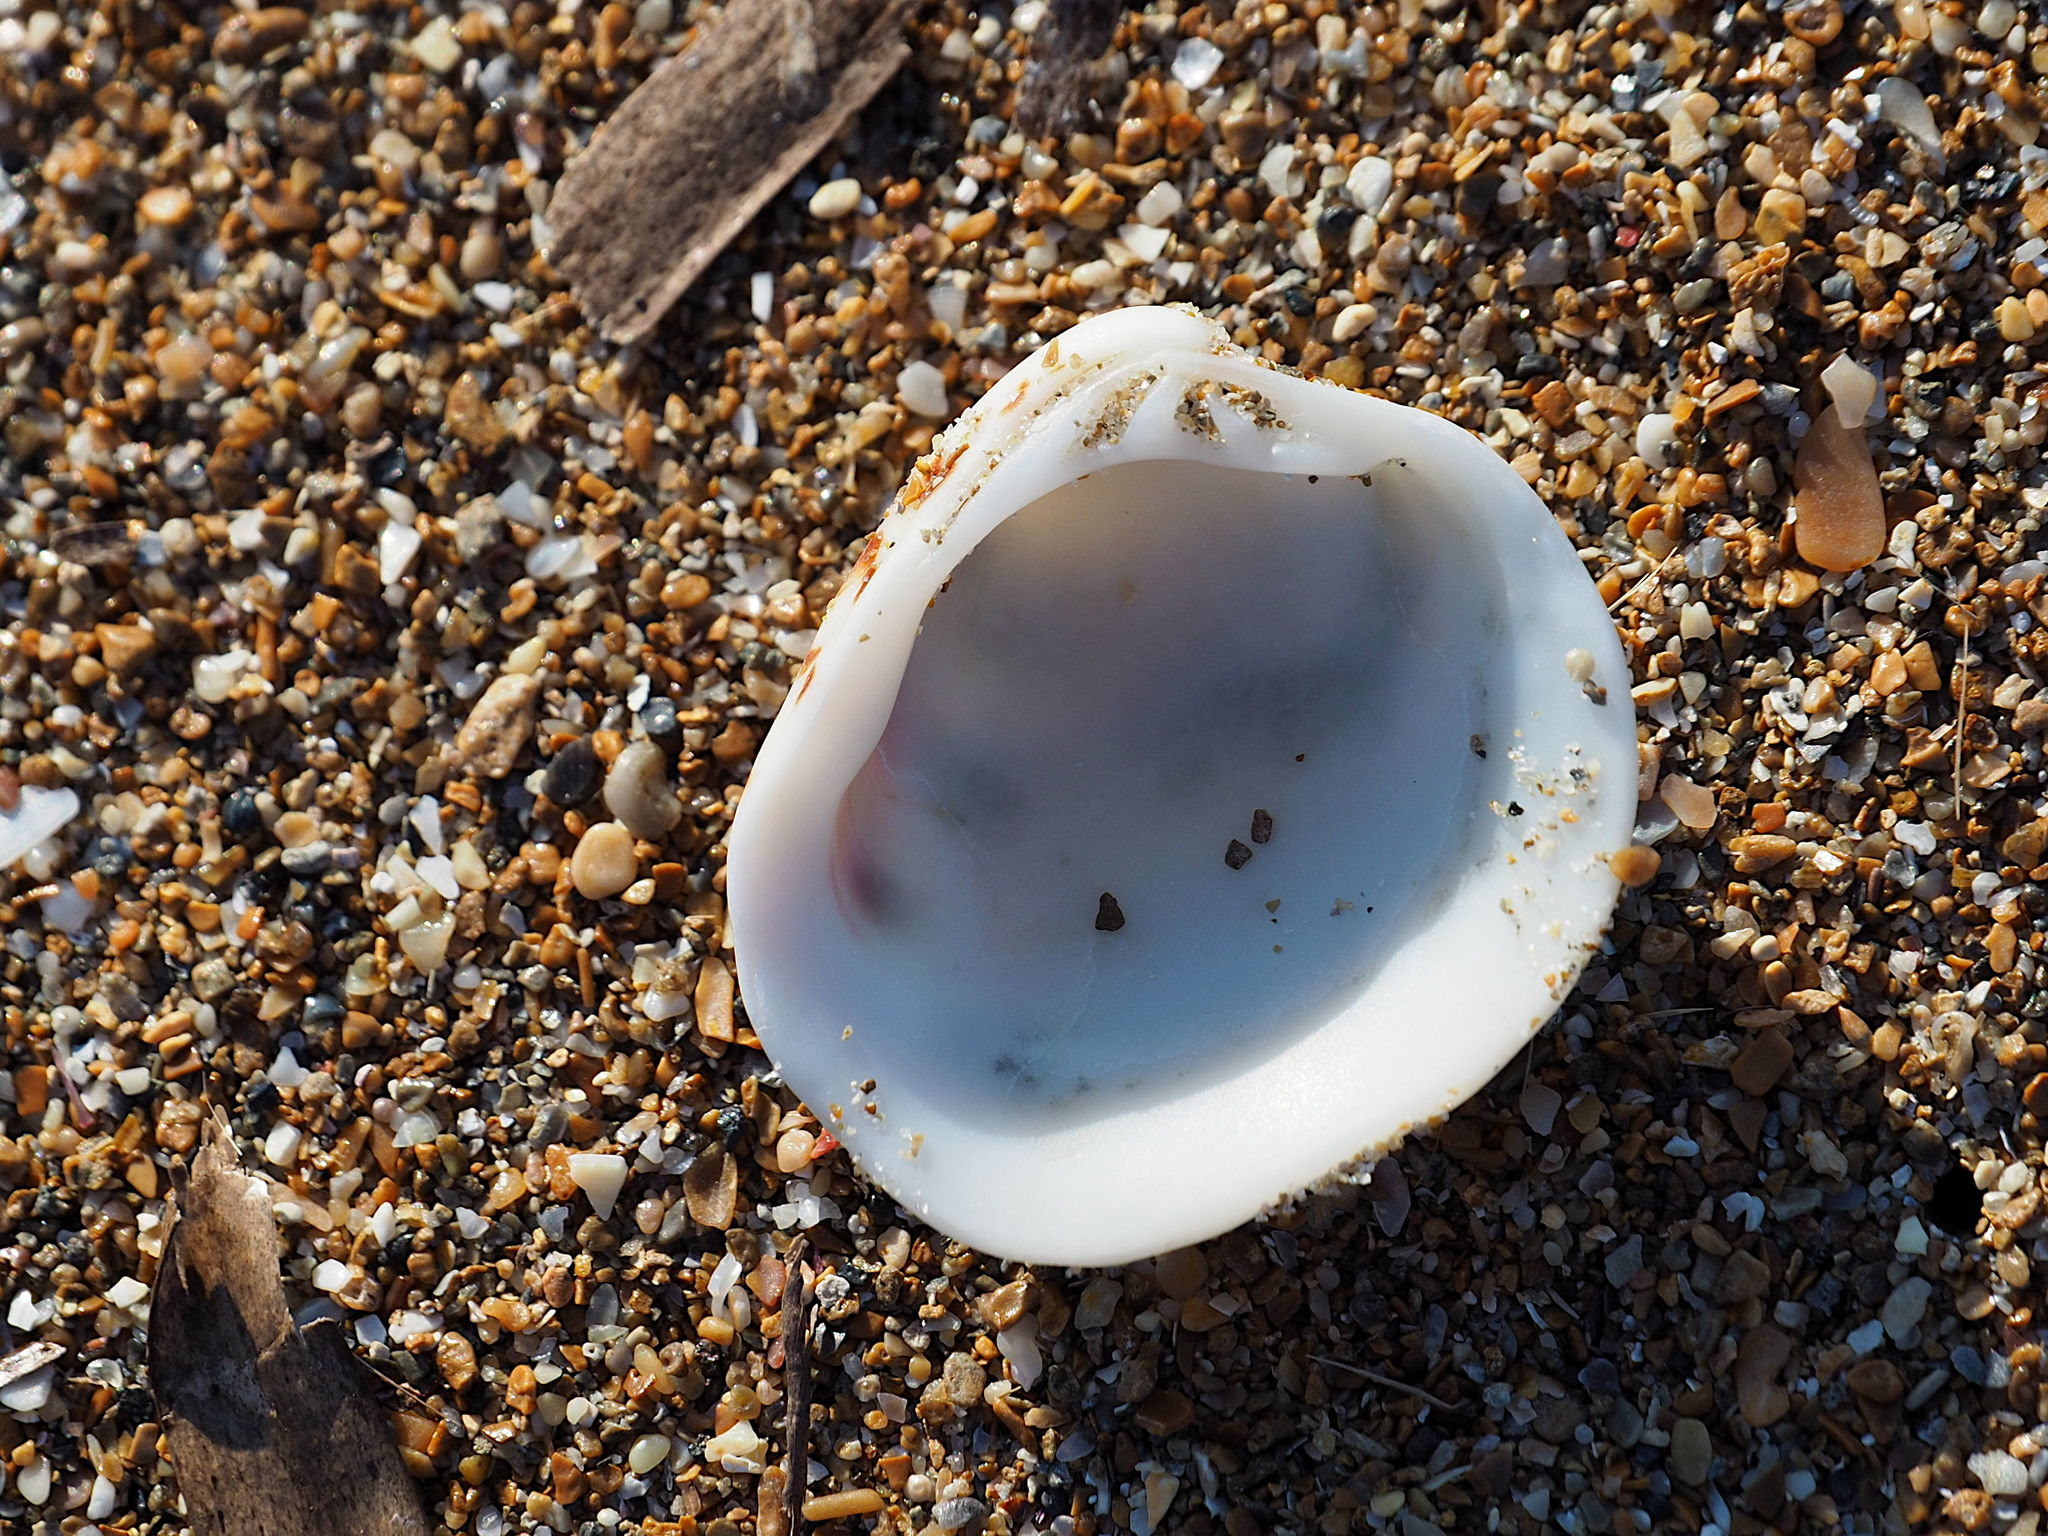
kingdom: Animalia
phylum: Mollusca
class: Bivalvia
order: Venerida
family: Veneridae
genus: Venus
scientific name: Venus verrucosa
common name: Warty venus
